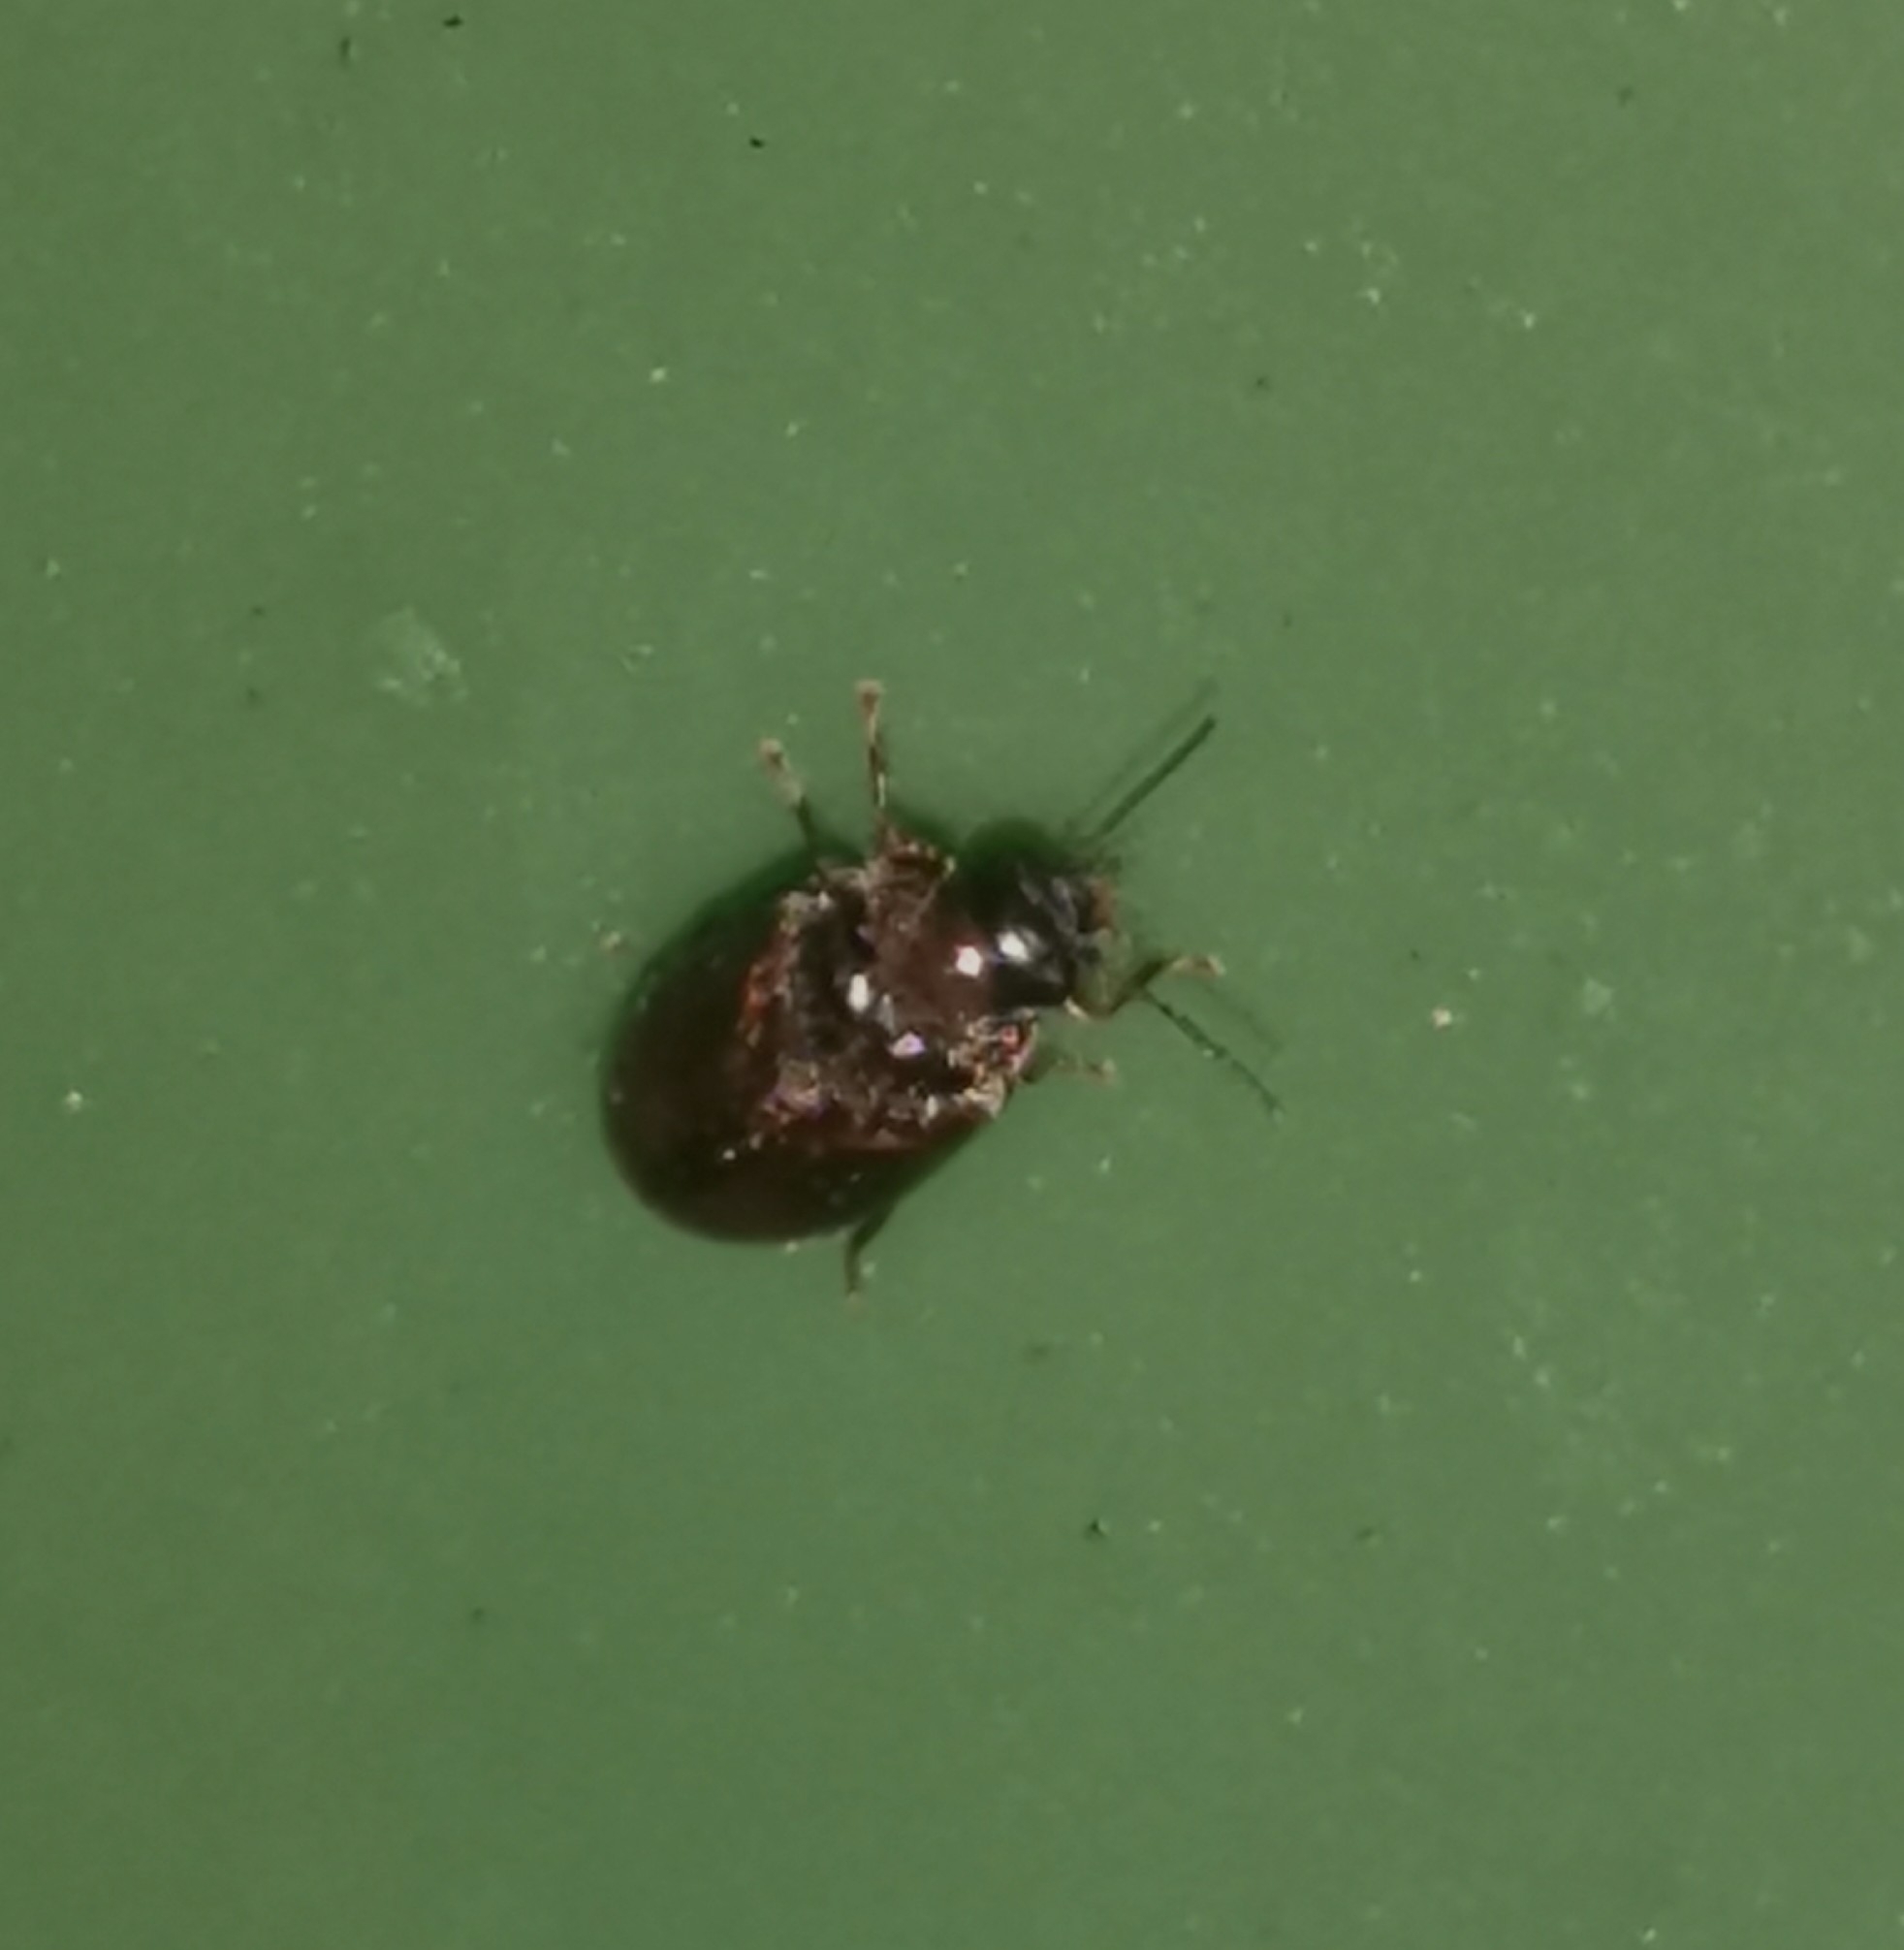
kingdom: Animalia
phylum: Arthropoda
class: Insecta
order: Coleoptera
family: Scirtidae
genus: Contacyphon
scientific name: Contacyphon
